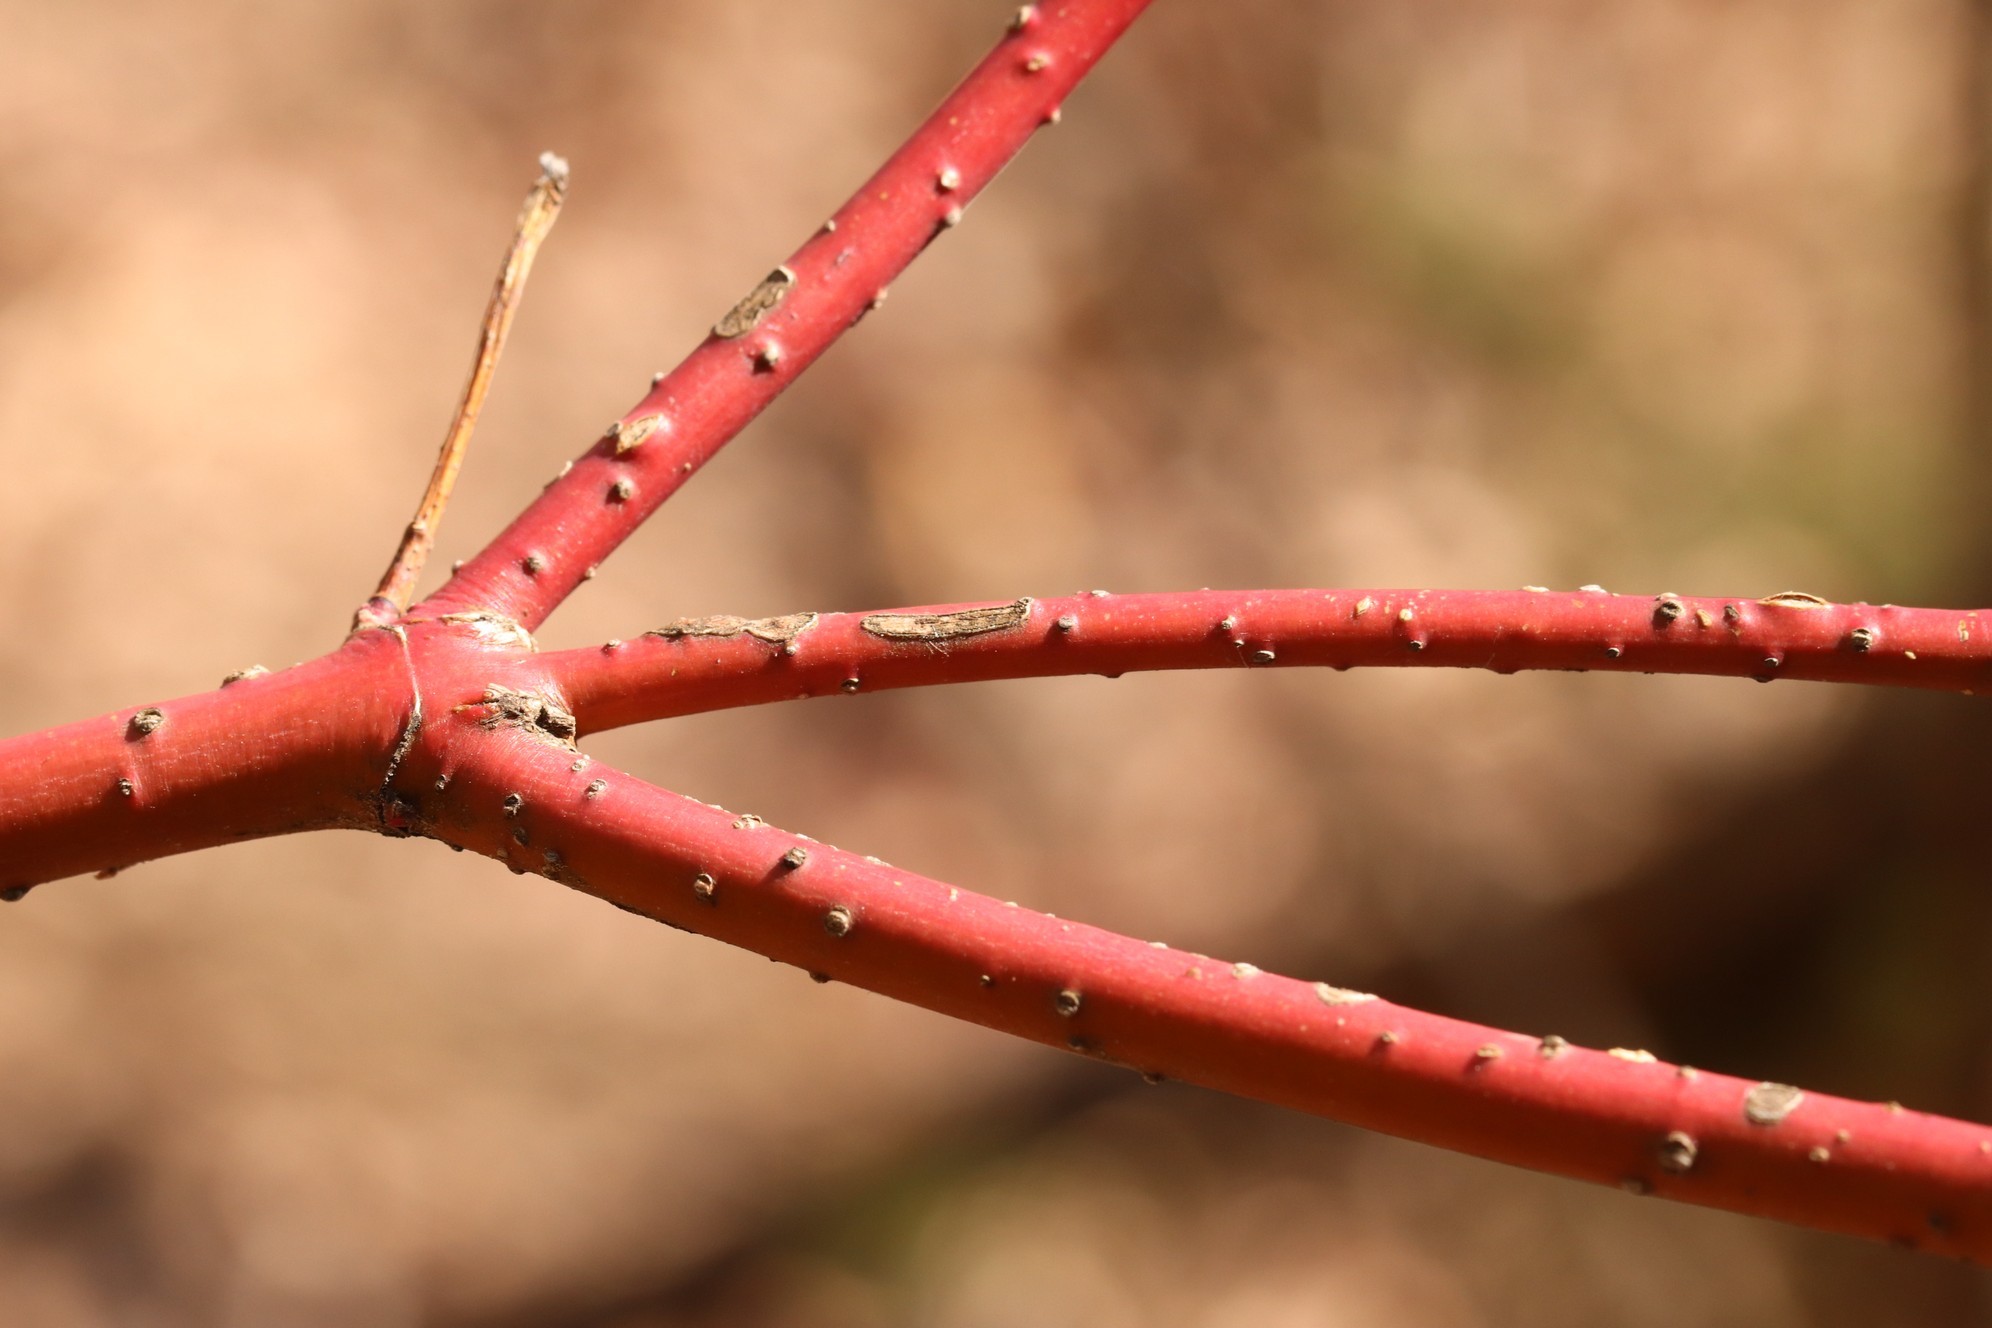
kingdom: Plantae
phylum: Tracheophyta
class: Magnoliopsida
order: Cornales
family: Cornaceae
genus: Cornus
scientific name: Cornus alba
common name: White dogwood
